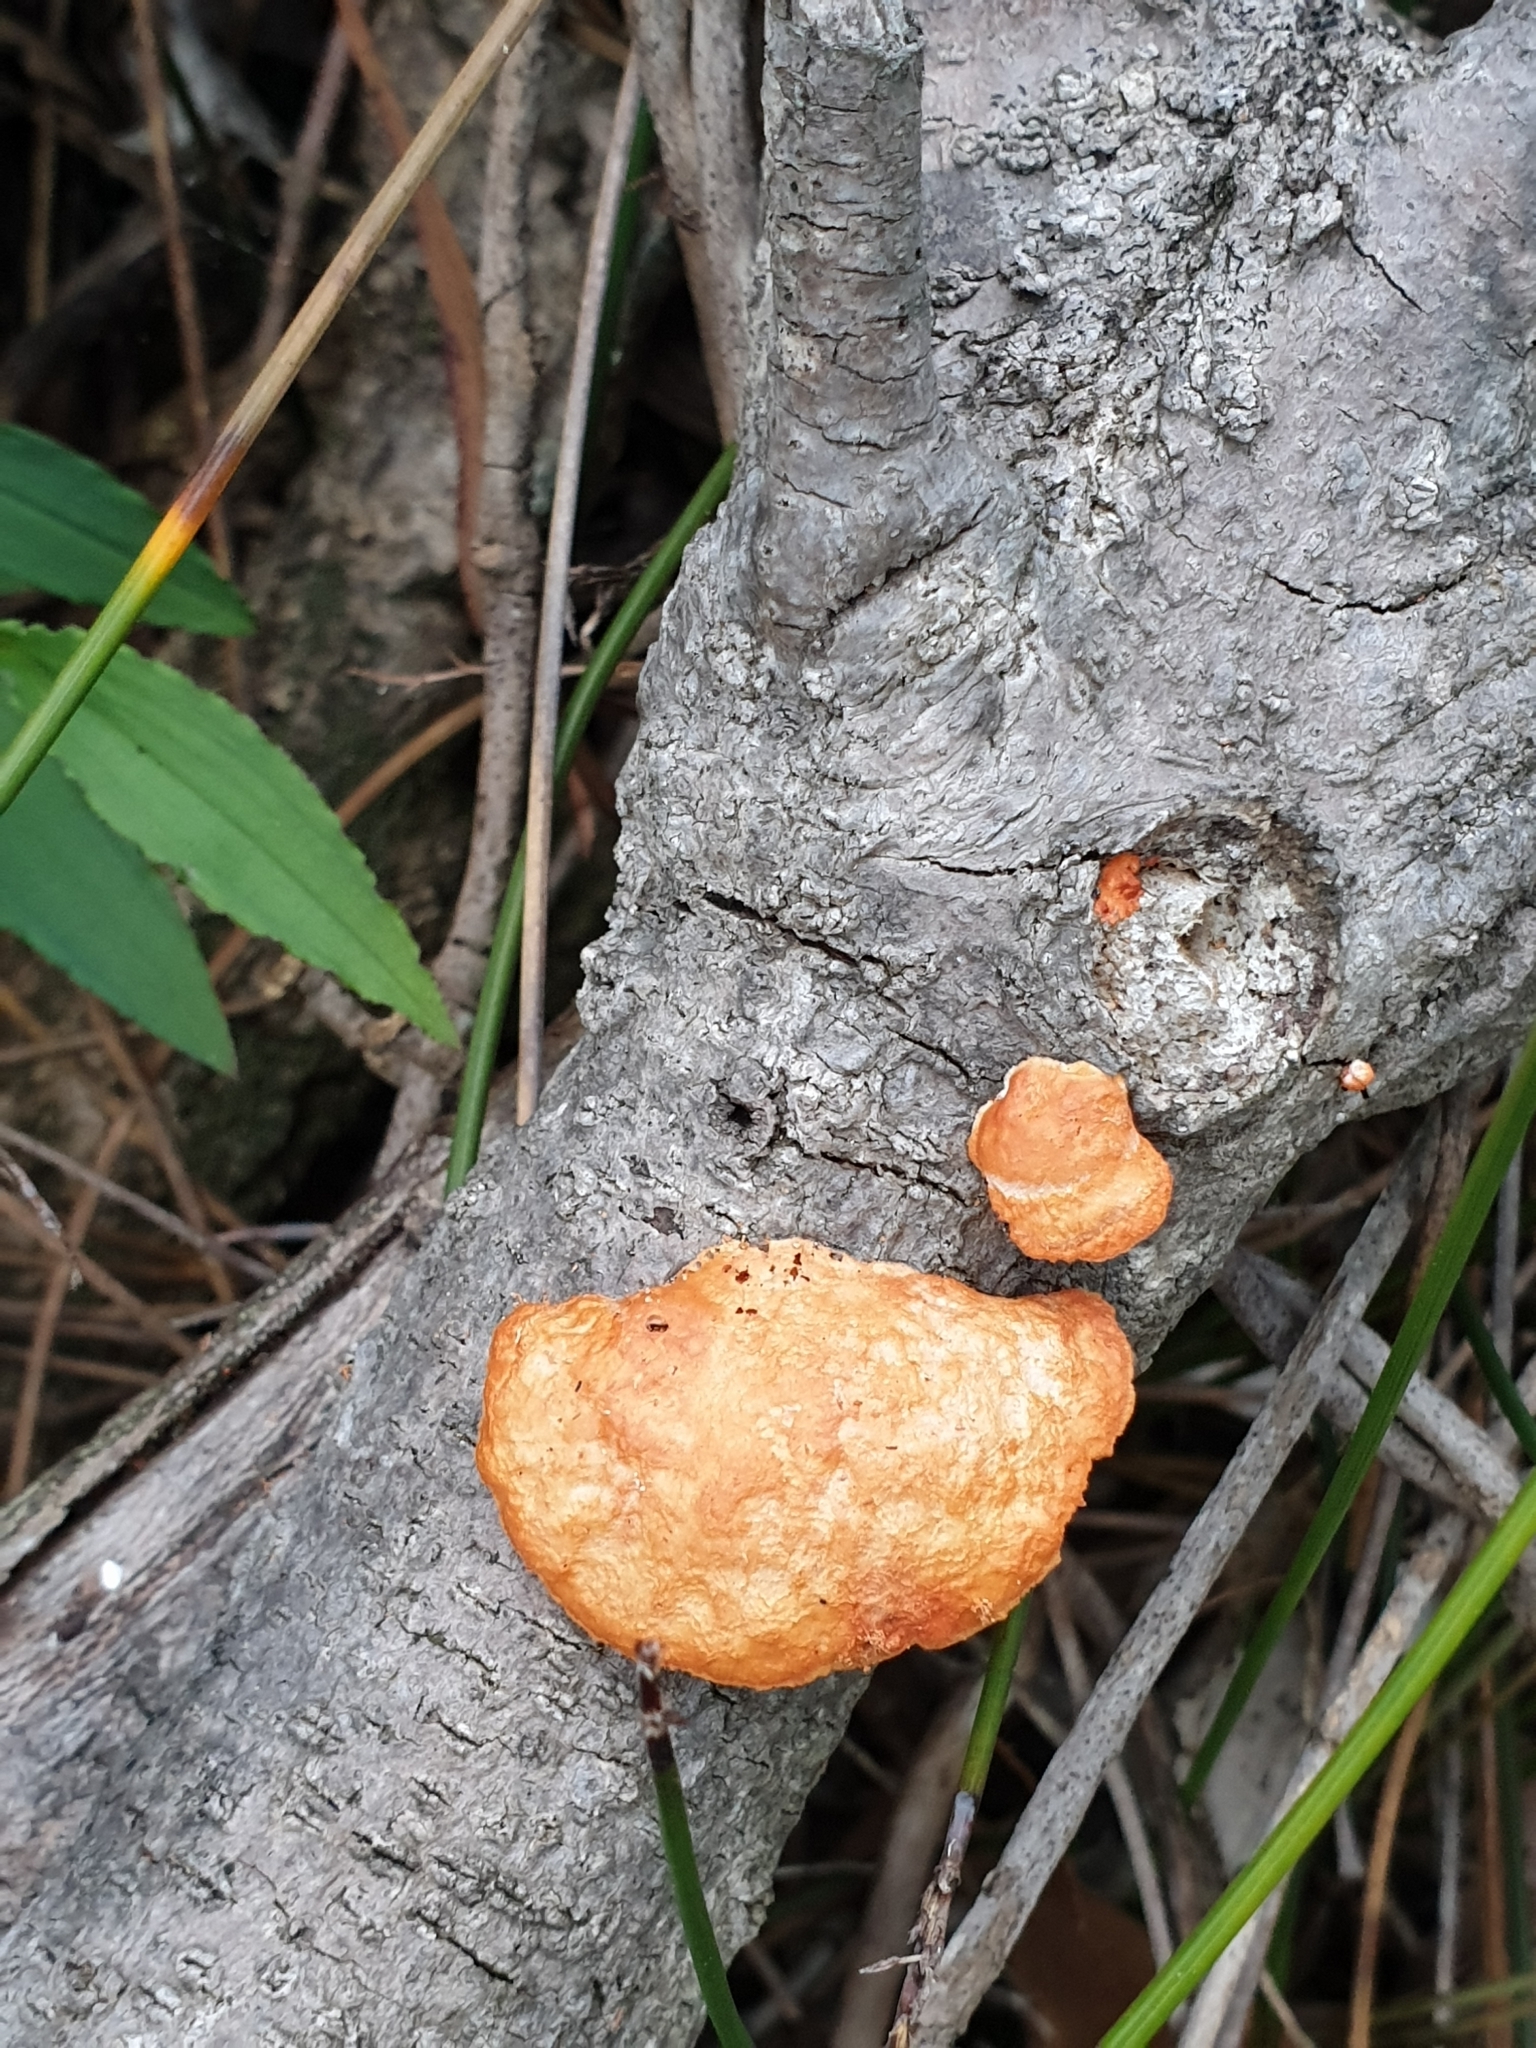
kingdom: Fungi
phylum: Basidiomycota
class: Agaricomycetes
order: Polyporales
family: Polyporaceae
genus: Trametes
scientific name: Trametes coccinea
